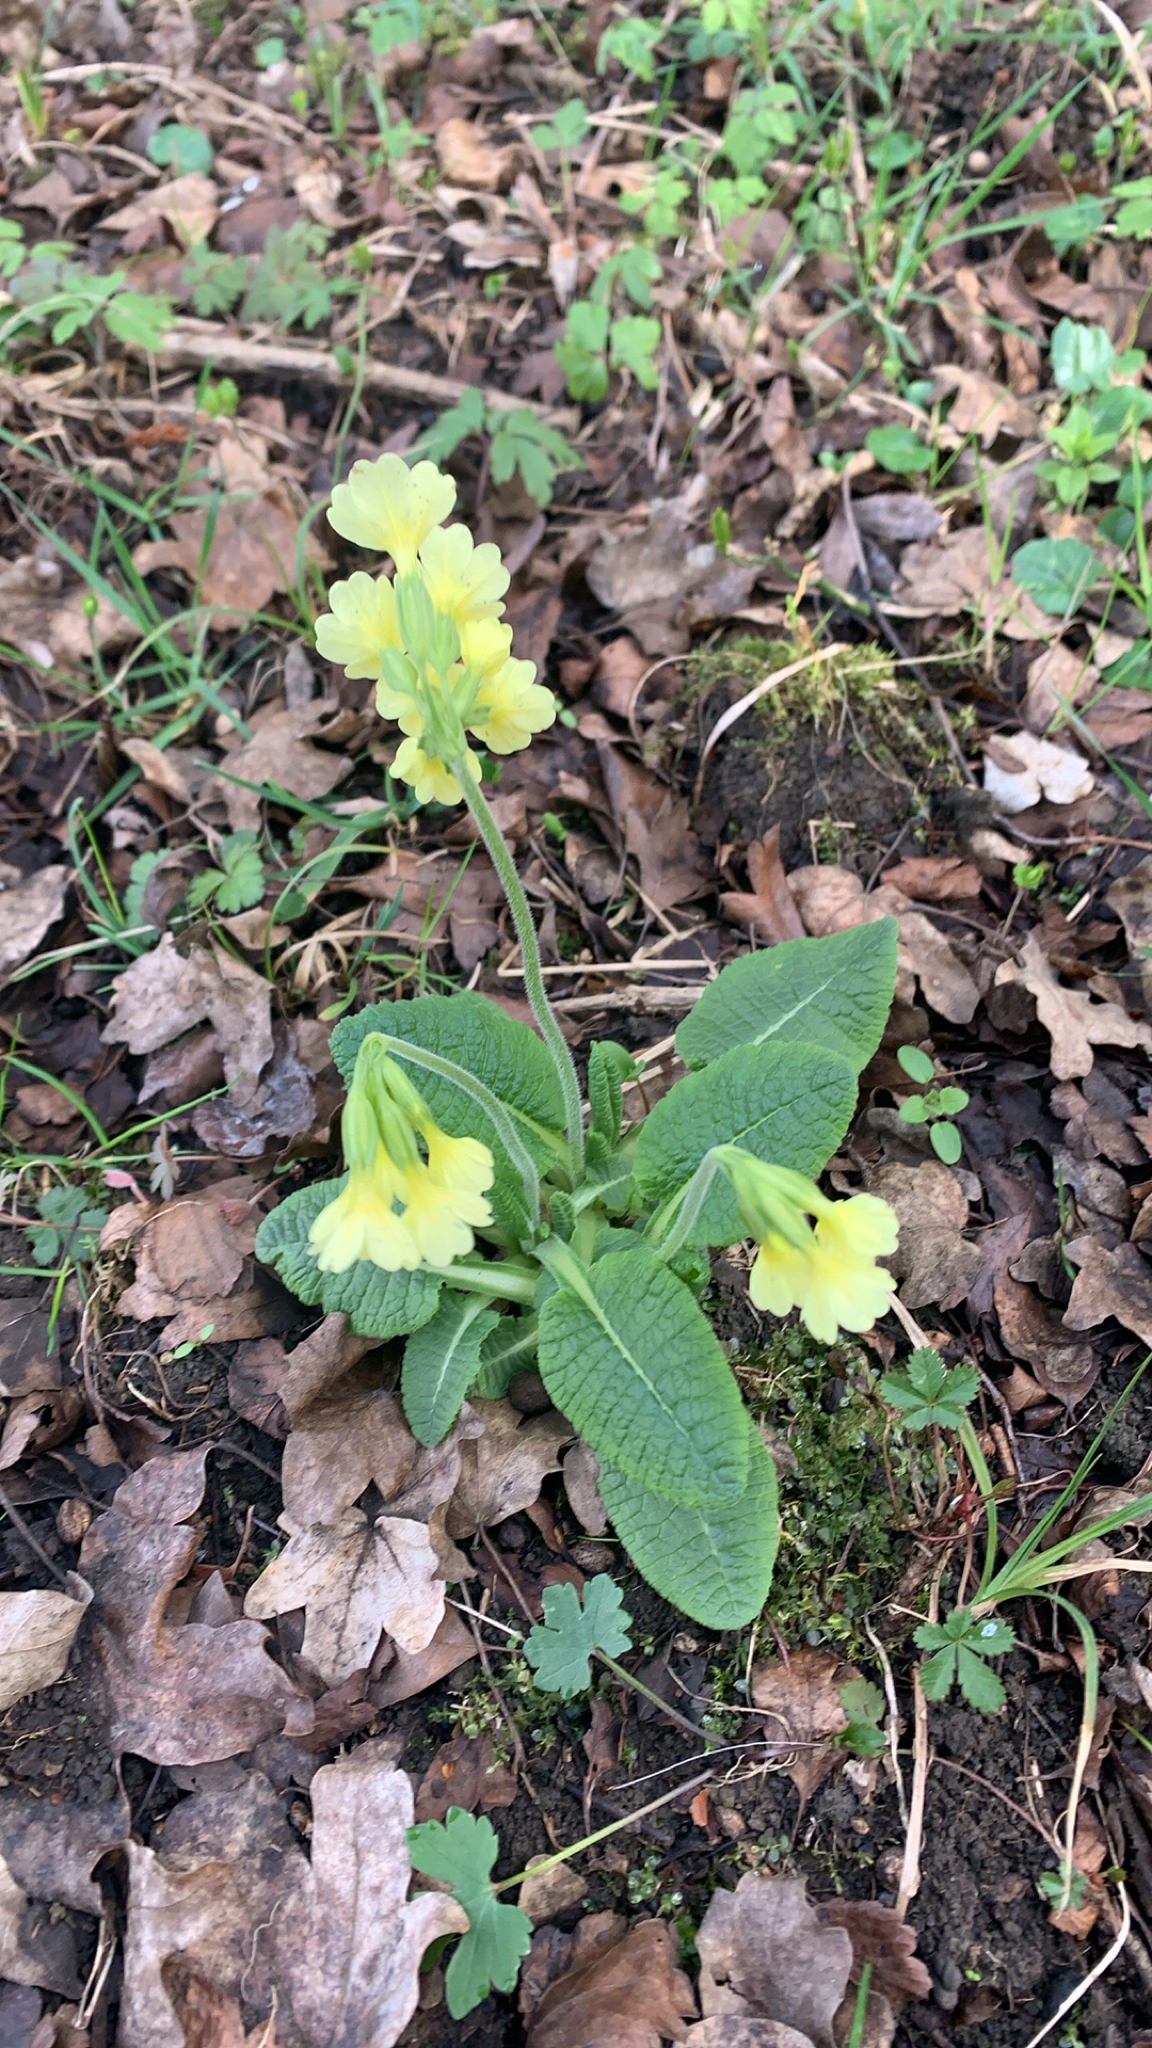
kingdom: Plantae
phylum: Tracheophyta
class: Magnoliopsida
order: Ericales
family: Primulaceae
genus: Primula
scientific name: Primula elatior
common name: Oxlip
